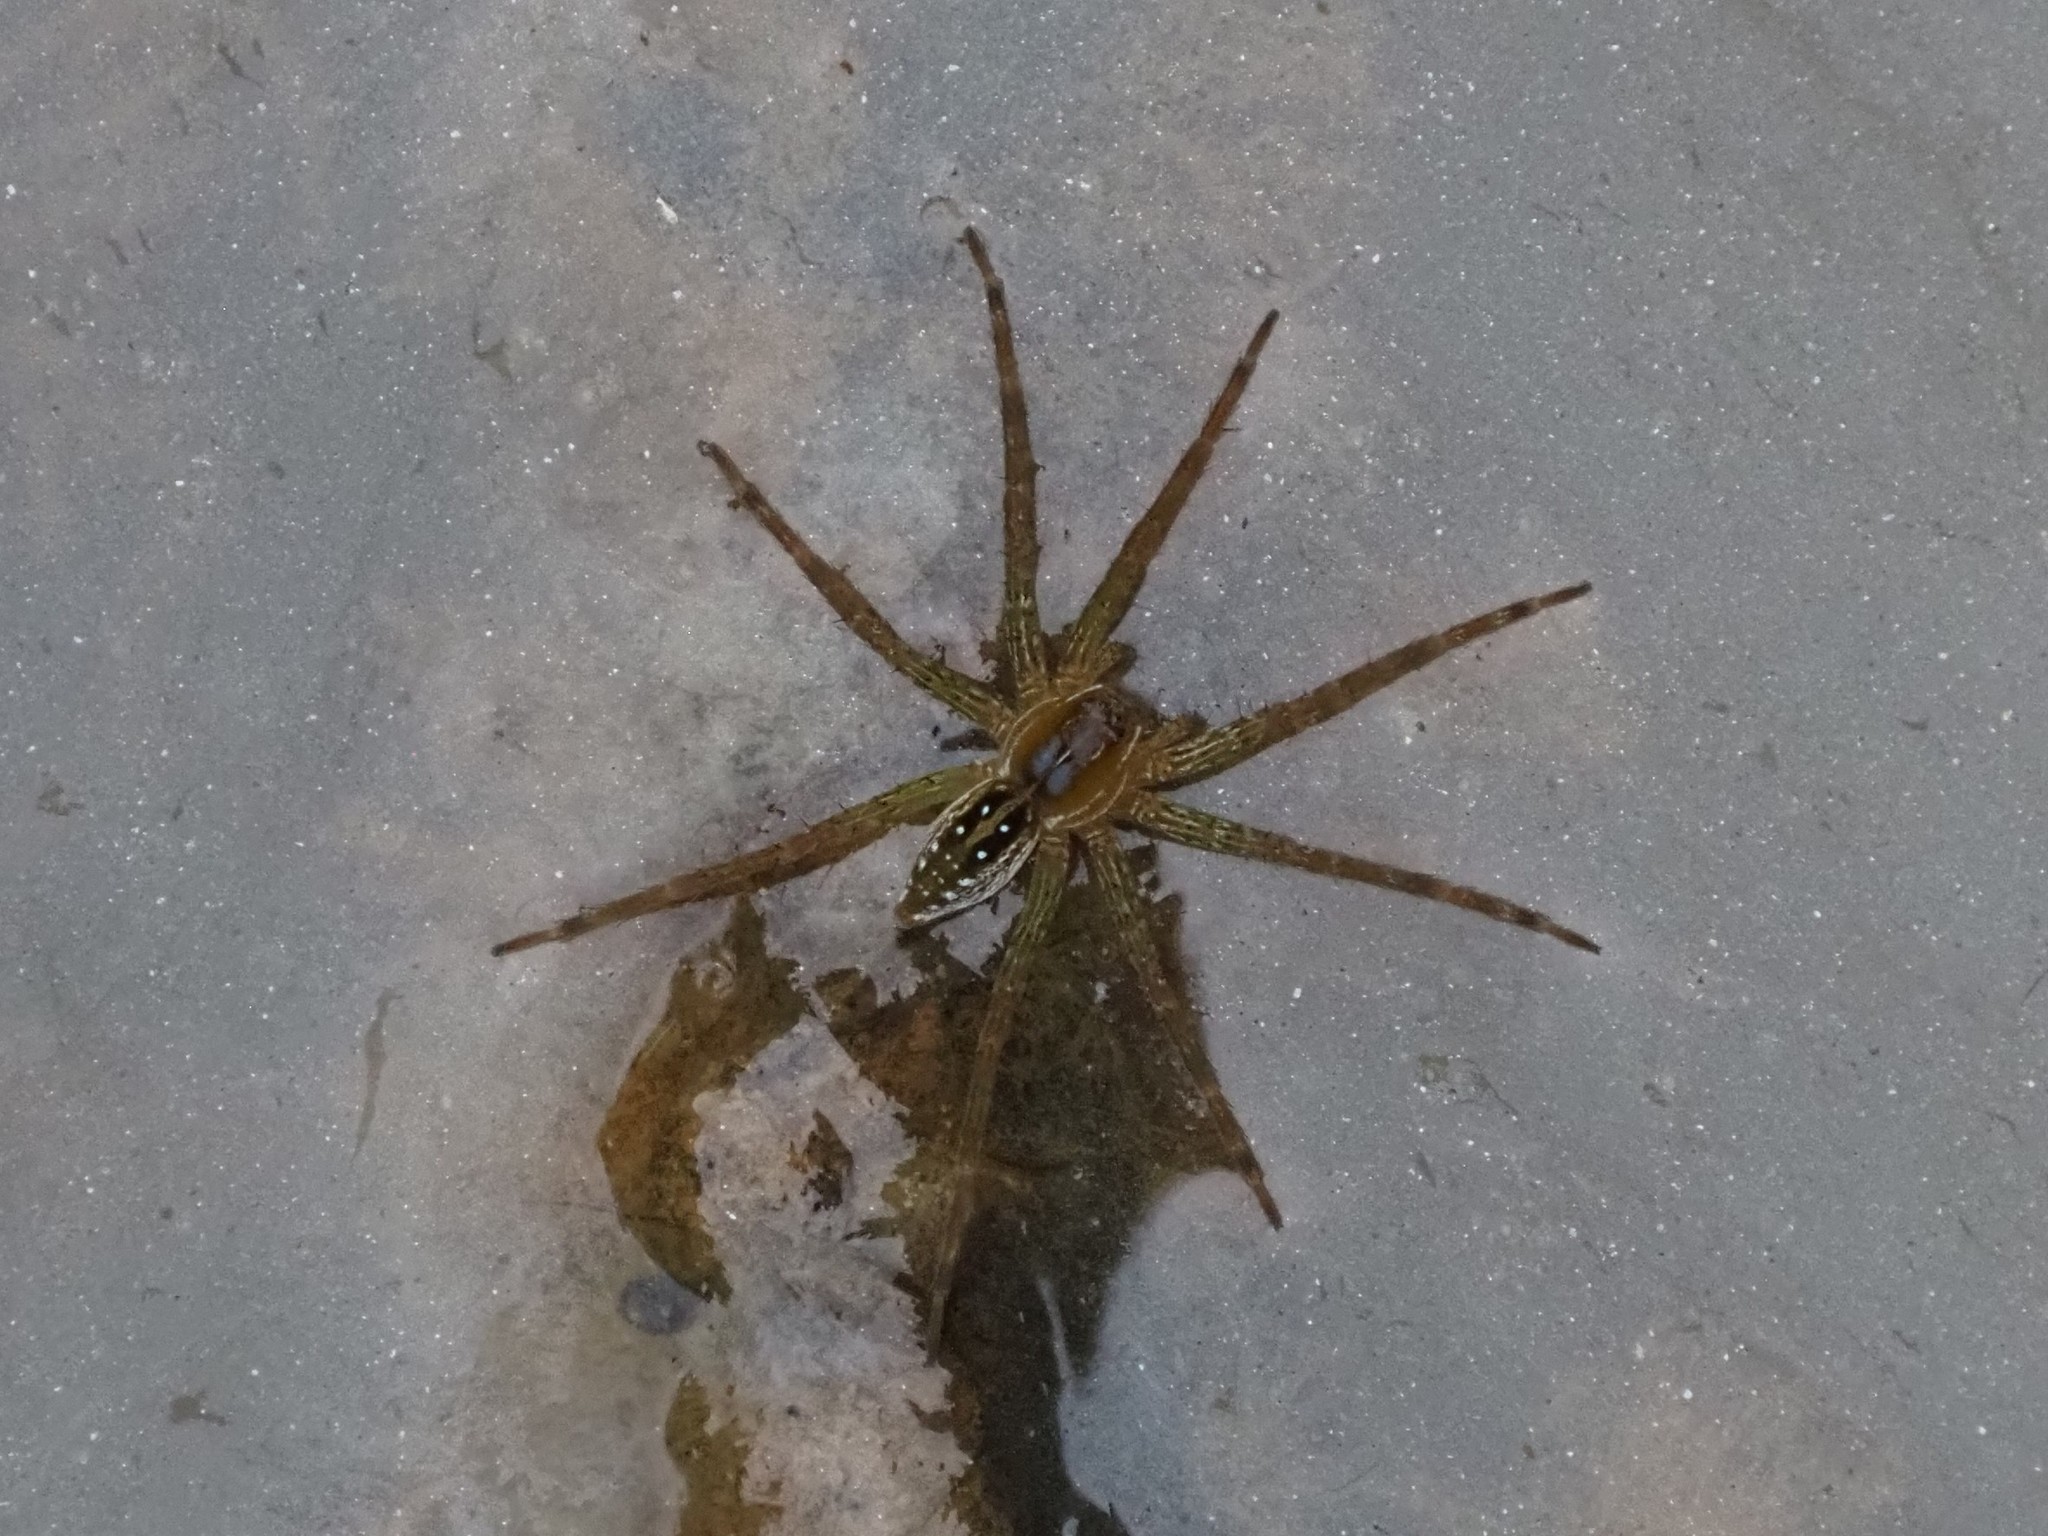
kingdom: Animalia
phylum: Arthropoda
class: Arachnida
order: Araneae
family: Pisauridae
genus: Dolomedes
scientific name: Dolomedes triton
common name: Six-spotted fishing spider
